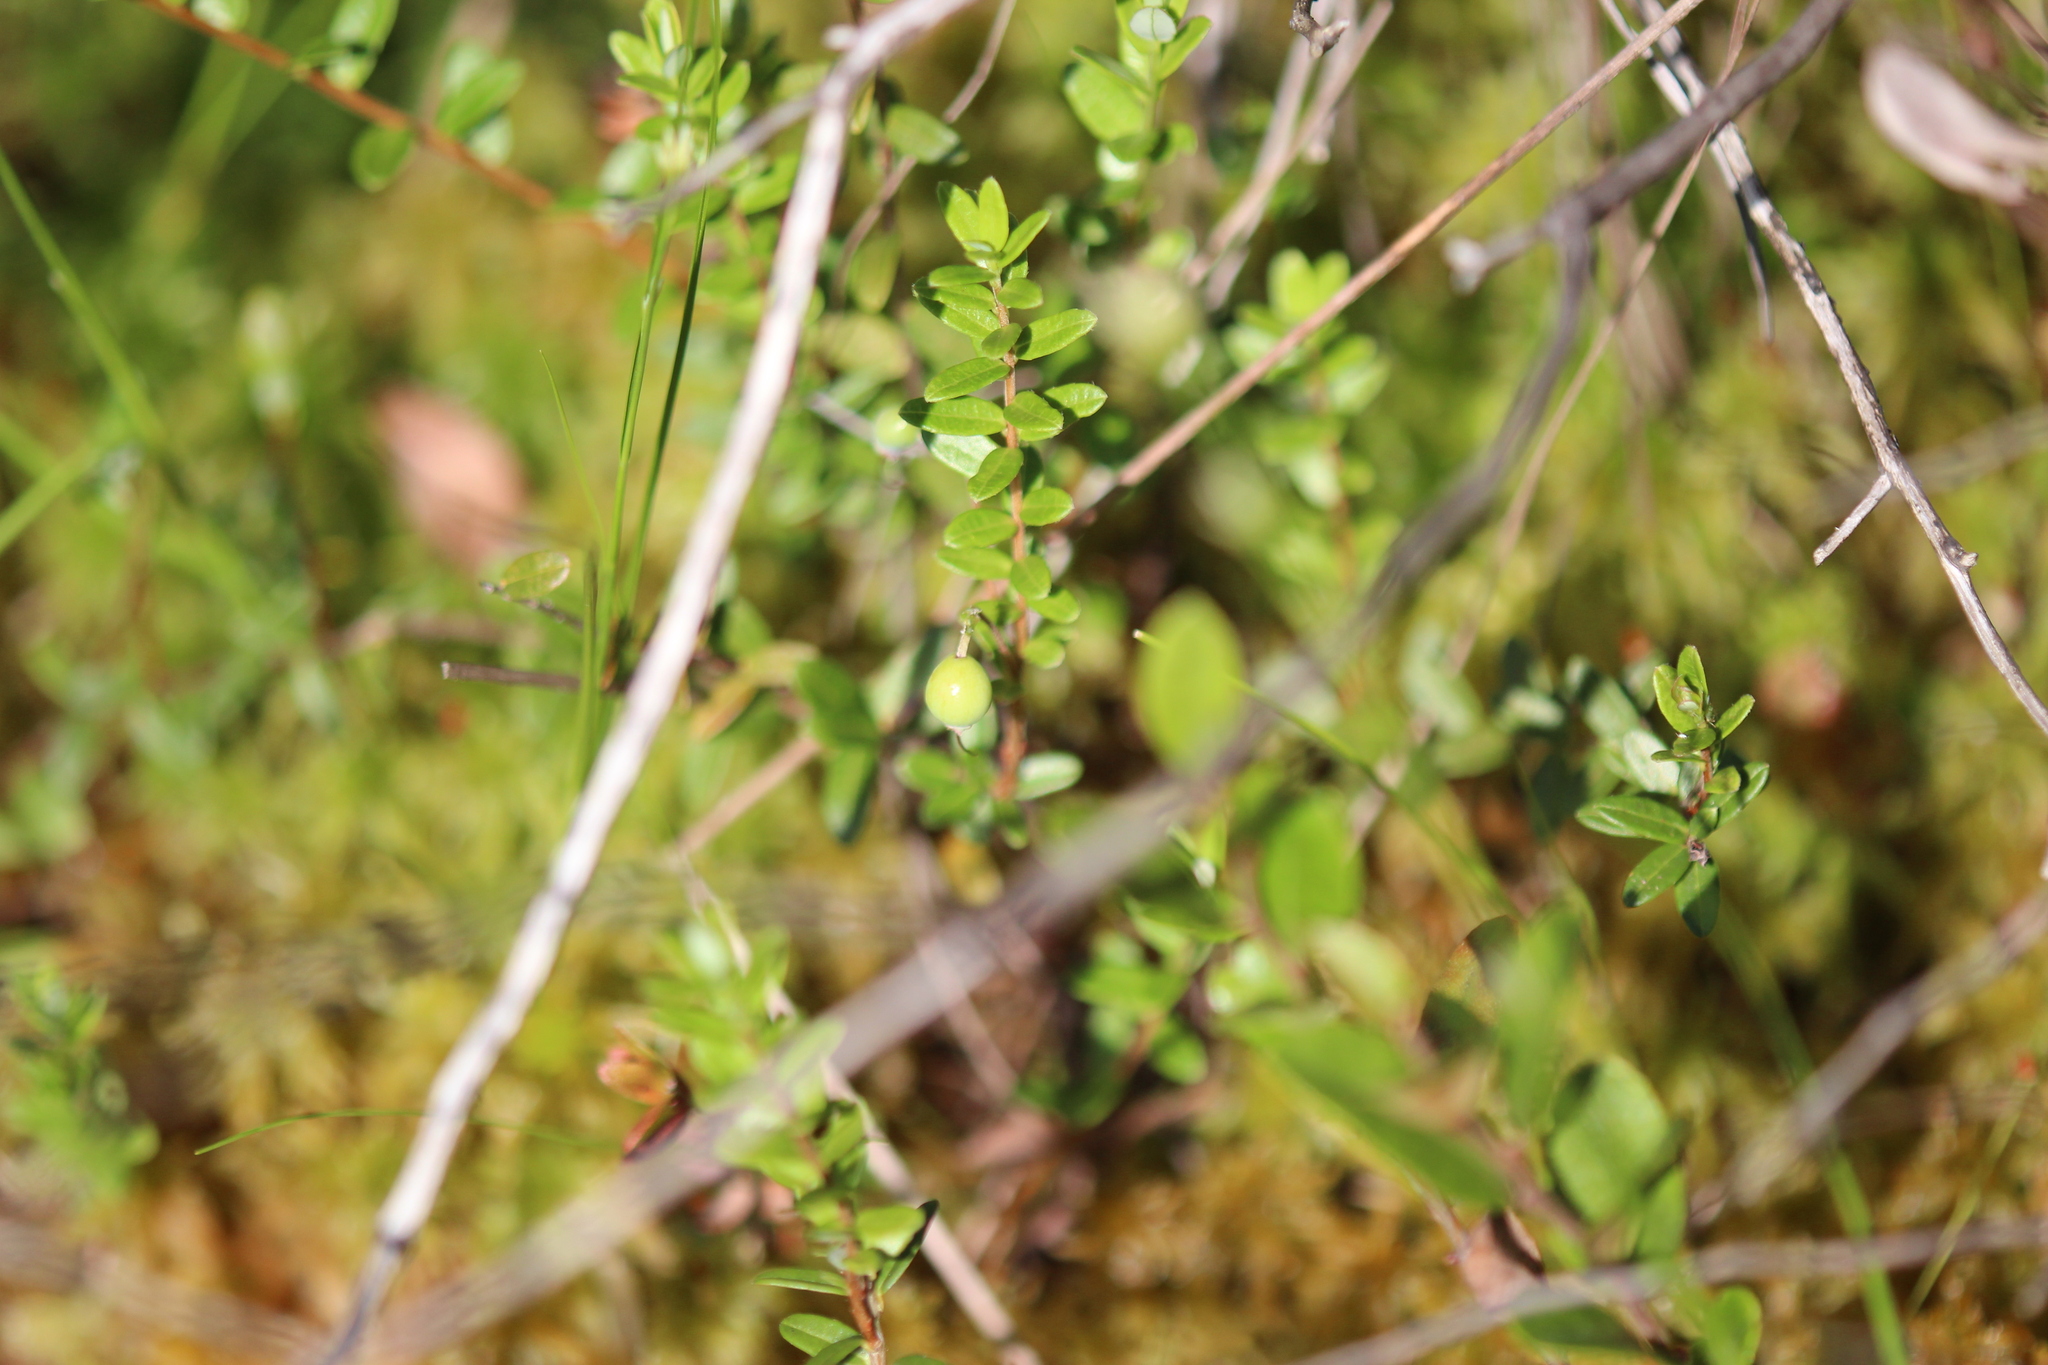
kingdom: Plantae
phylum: Tracheophyta
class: Magnoliopsida
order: Ericales
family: Ericaceae
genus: Vaccinium
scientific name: Vaccinium macrocarpon
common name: American cranberry
